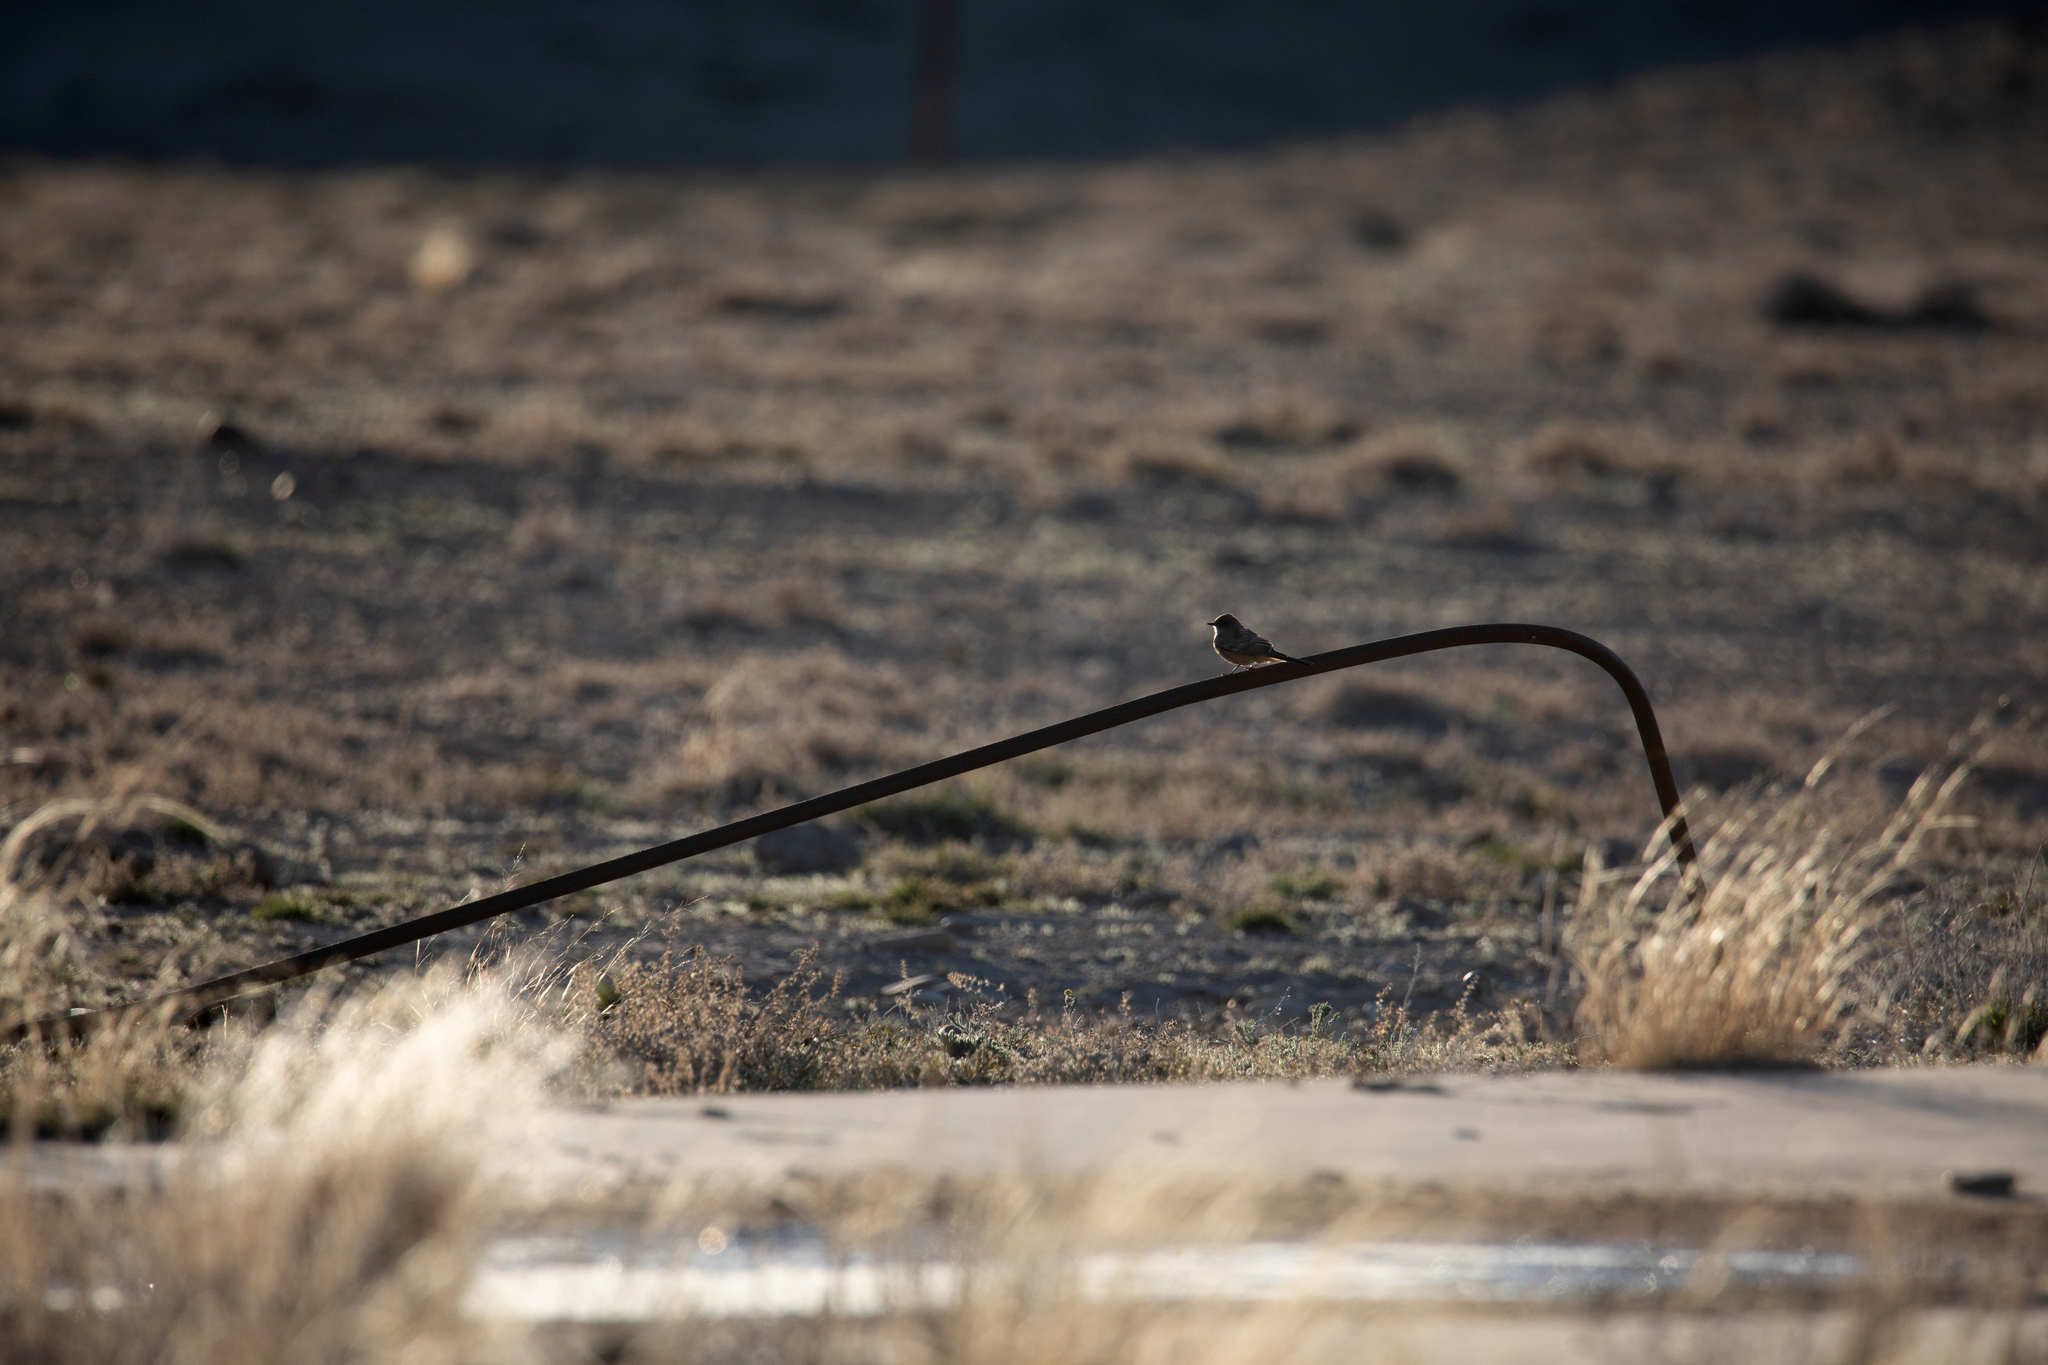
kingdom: Animalia
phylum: Chordata
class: Aves
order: Passeriformes
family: Tyrannidae
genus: Sayornis
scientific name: Sayornis saya
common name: Say's phoebe
